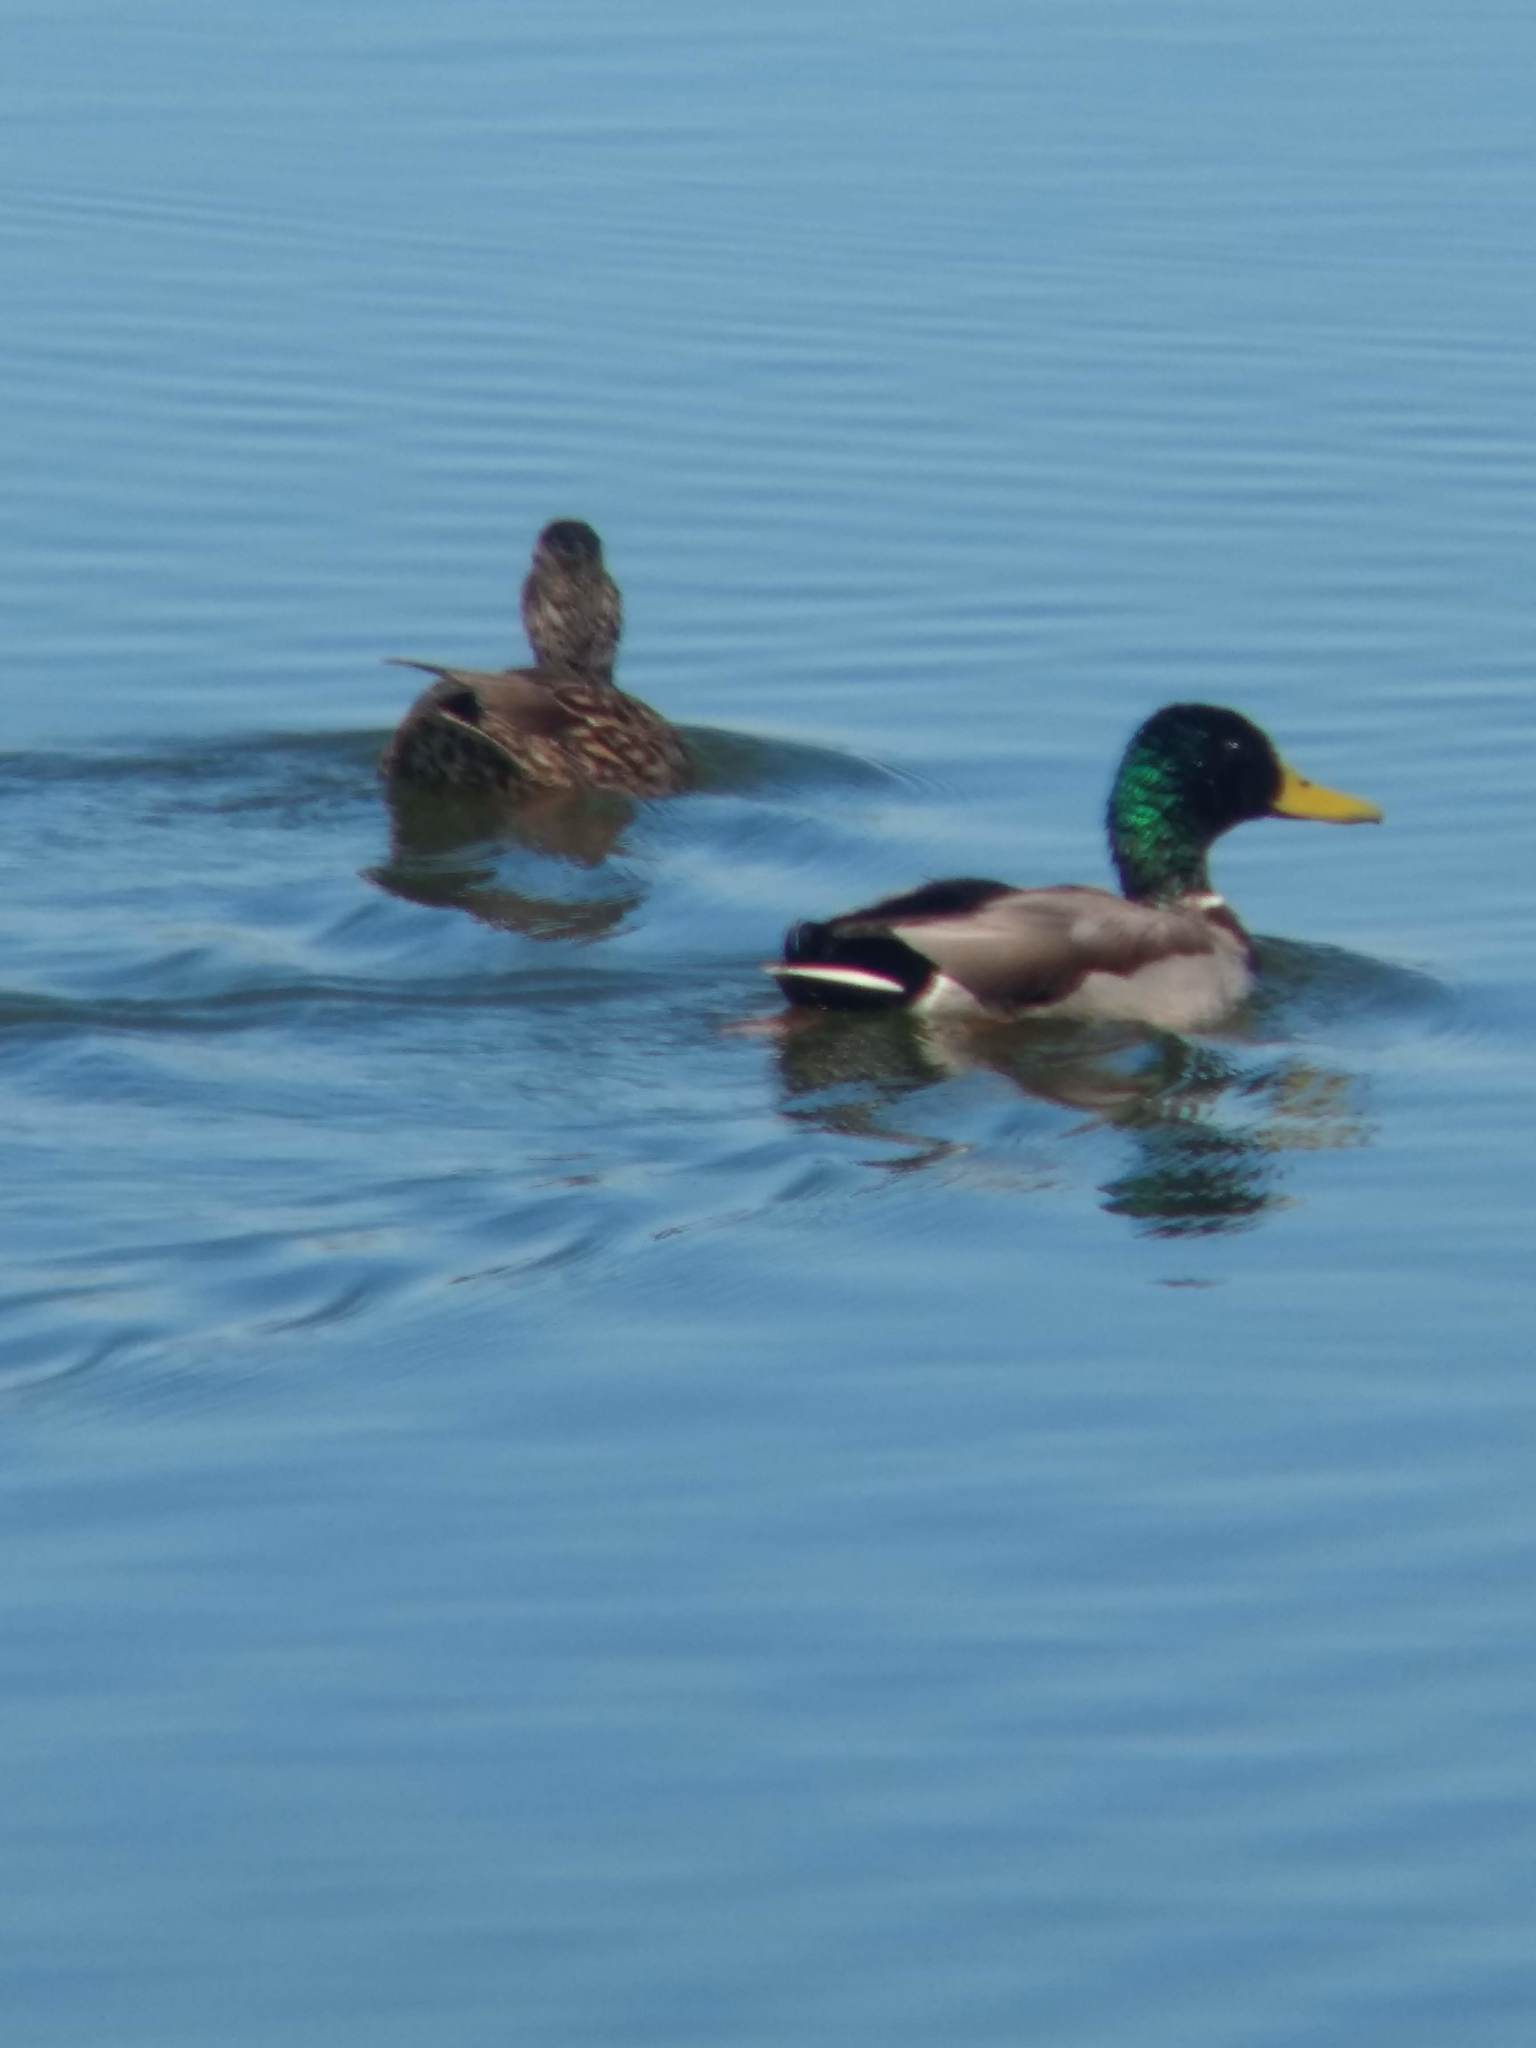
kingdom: Animalia
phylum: Chordata
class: Aves
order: Anseriformes
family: Anatidae
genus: Anas
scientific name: Anas platyrhynchos
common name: Mallard
